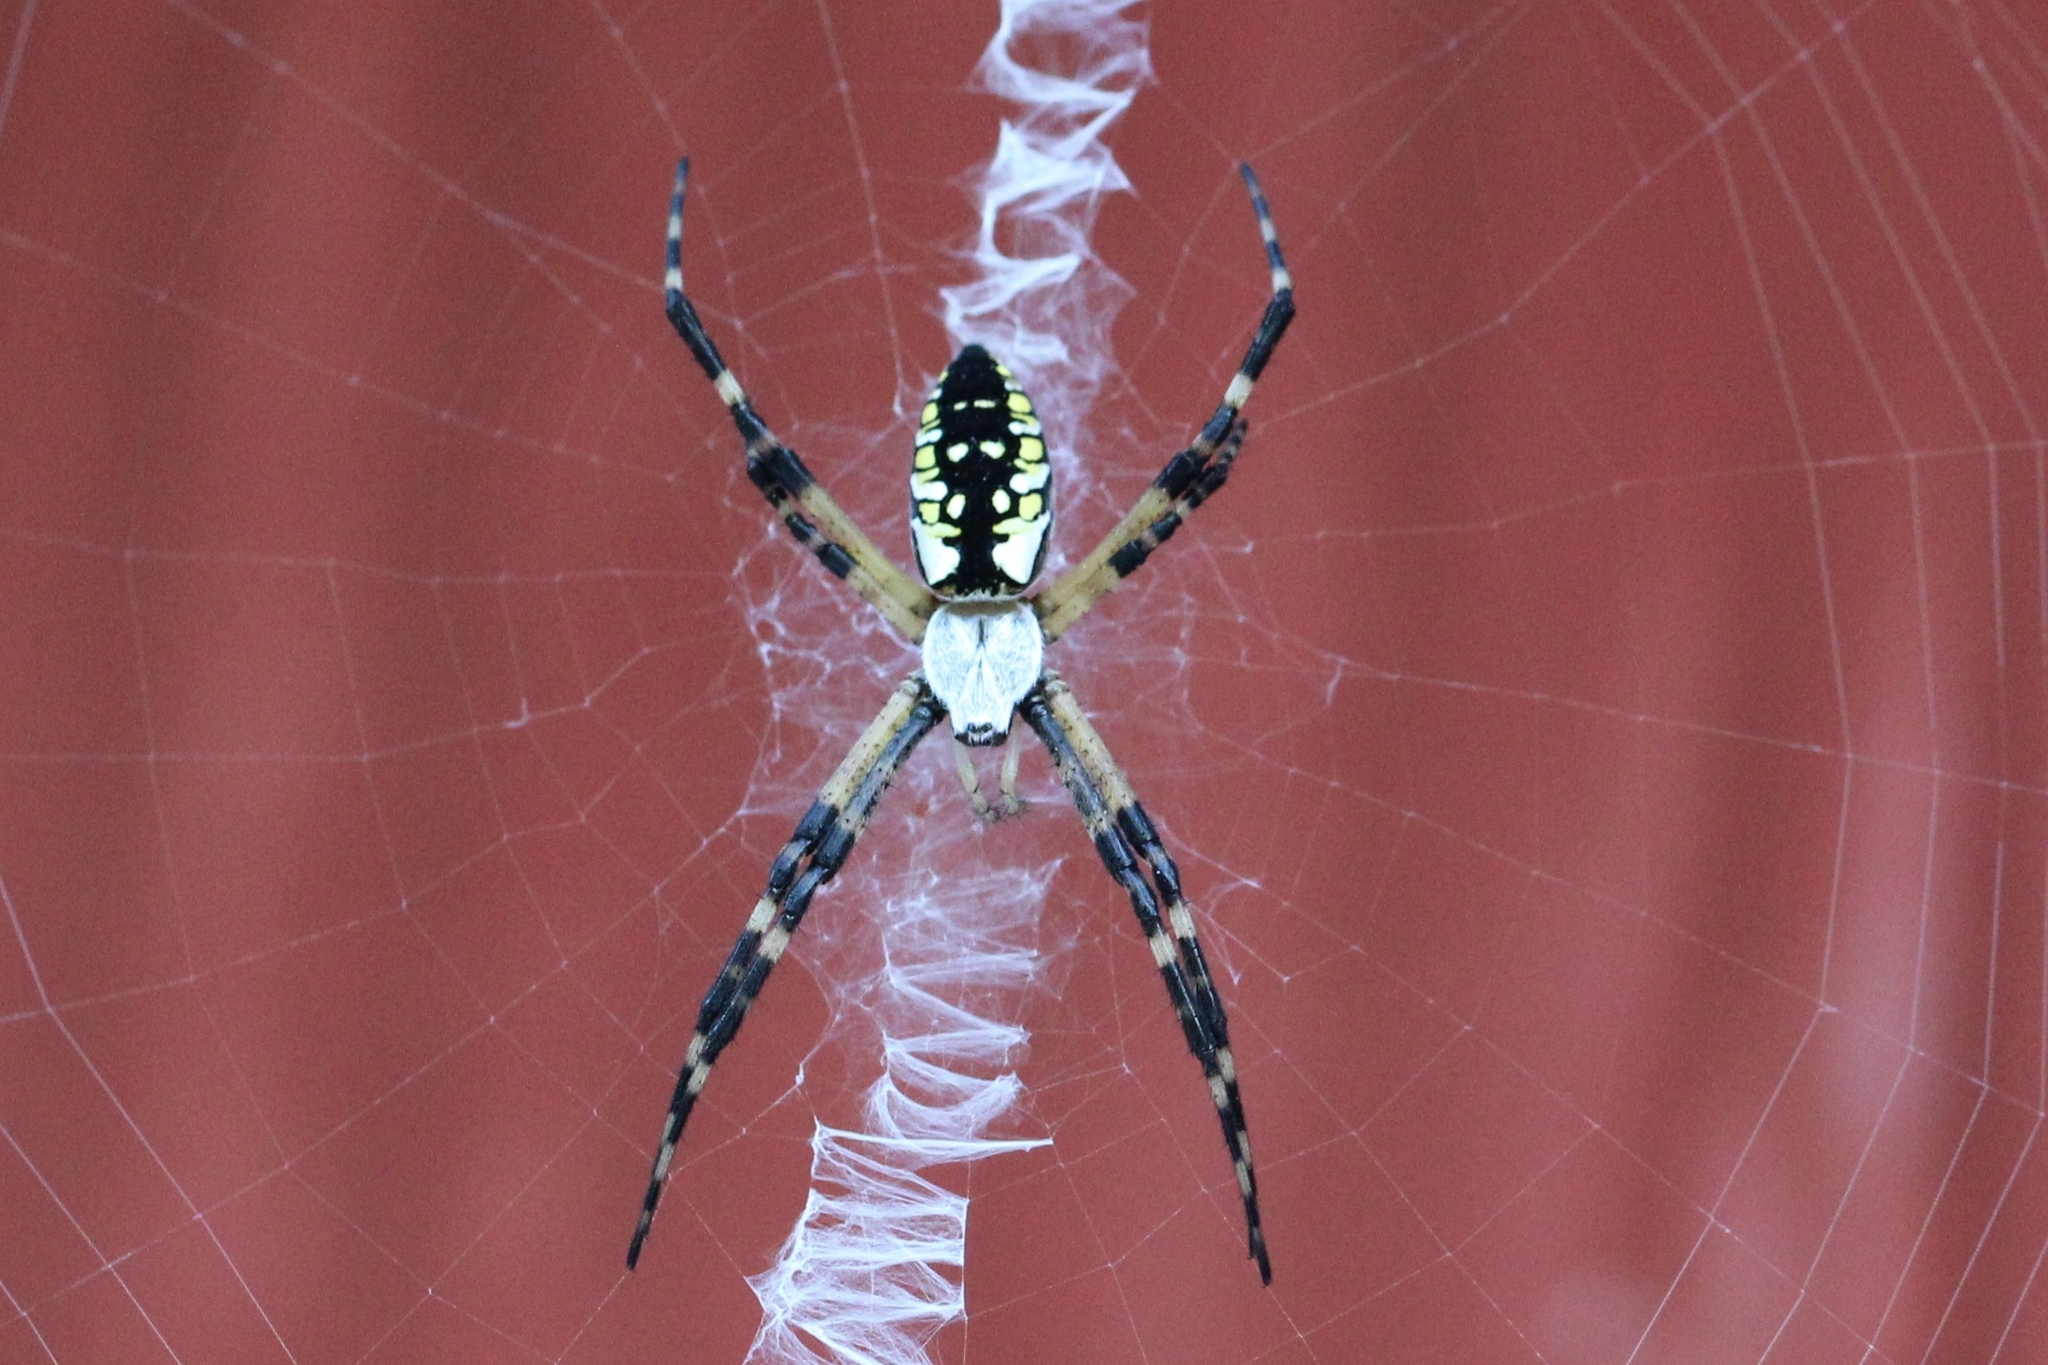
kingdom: Animalia
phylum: Arthropoda
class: Arachnida
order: Araneae
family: Araneidae
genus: Argiope
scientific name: Argiope aurantia
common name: Orb weavers
